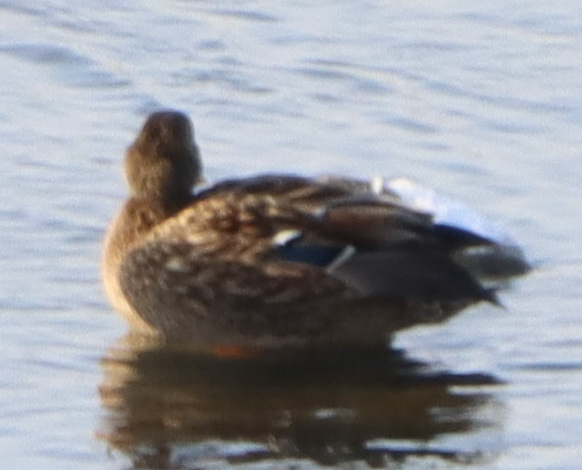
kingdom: Animalia
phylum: Chordata
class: Aves
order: Anseriformes
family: Anatidae
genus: Anas
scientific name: Anas platyrhynchos
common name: Mallard
